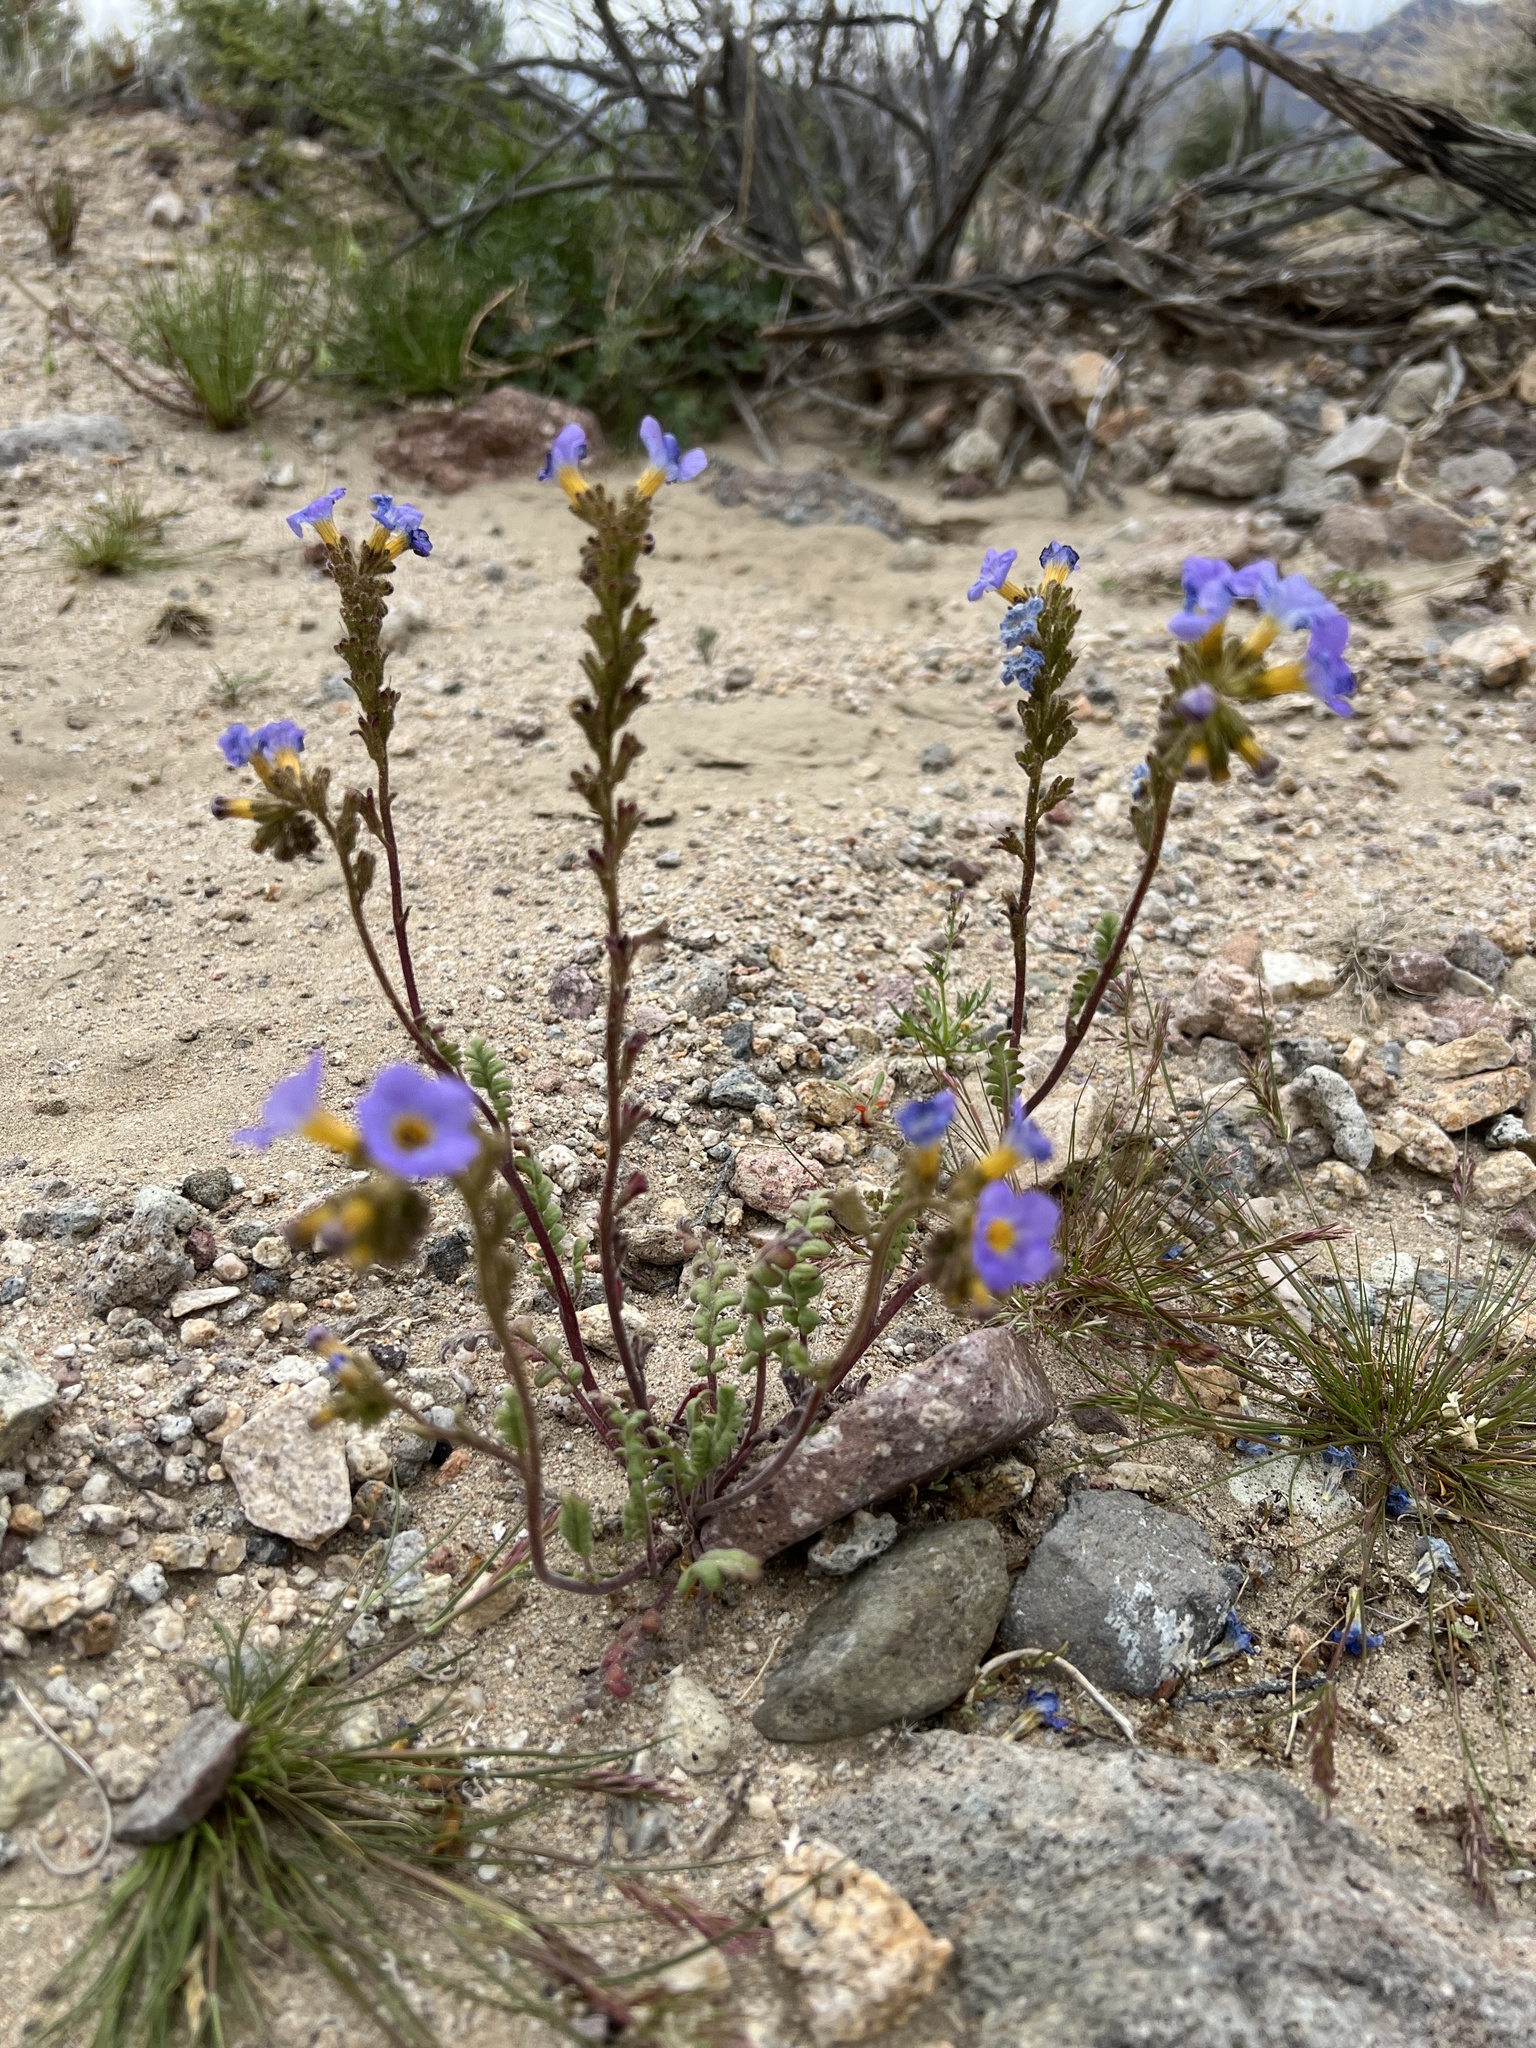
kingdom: Plantae
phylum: Tracheophyta
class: Magnoliopsida
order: Boraginales
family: Hydrophyllaceae
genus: Phacelia
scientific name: Phacelia fremontii
